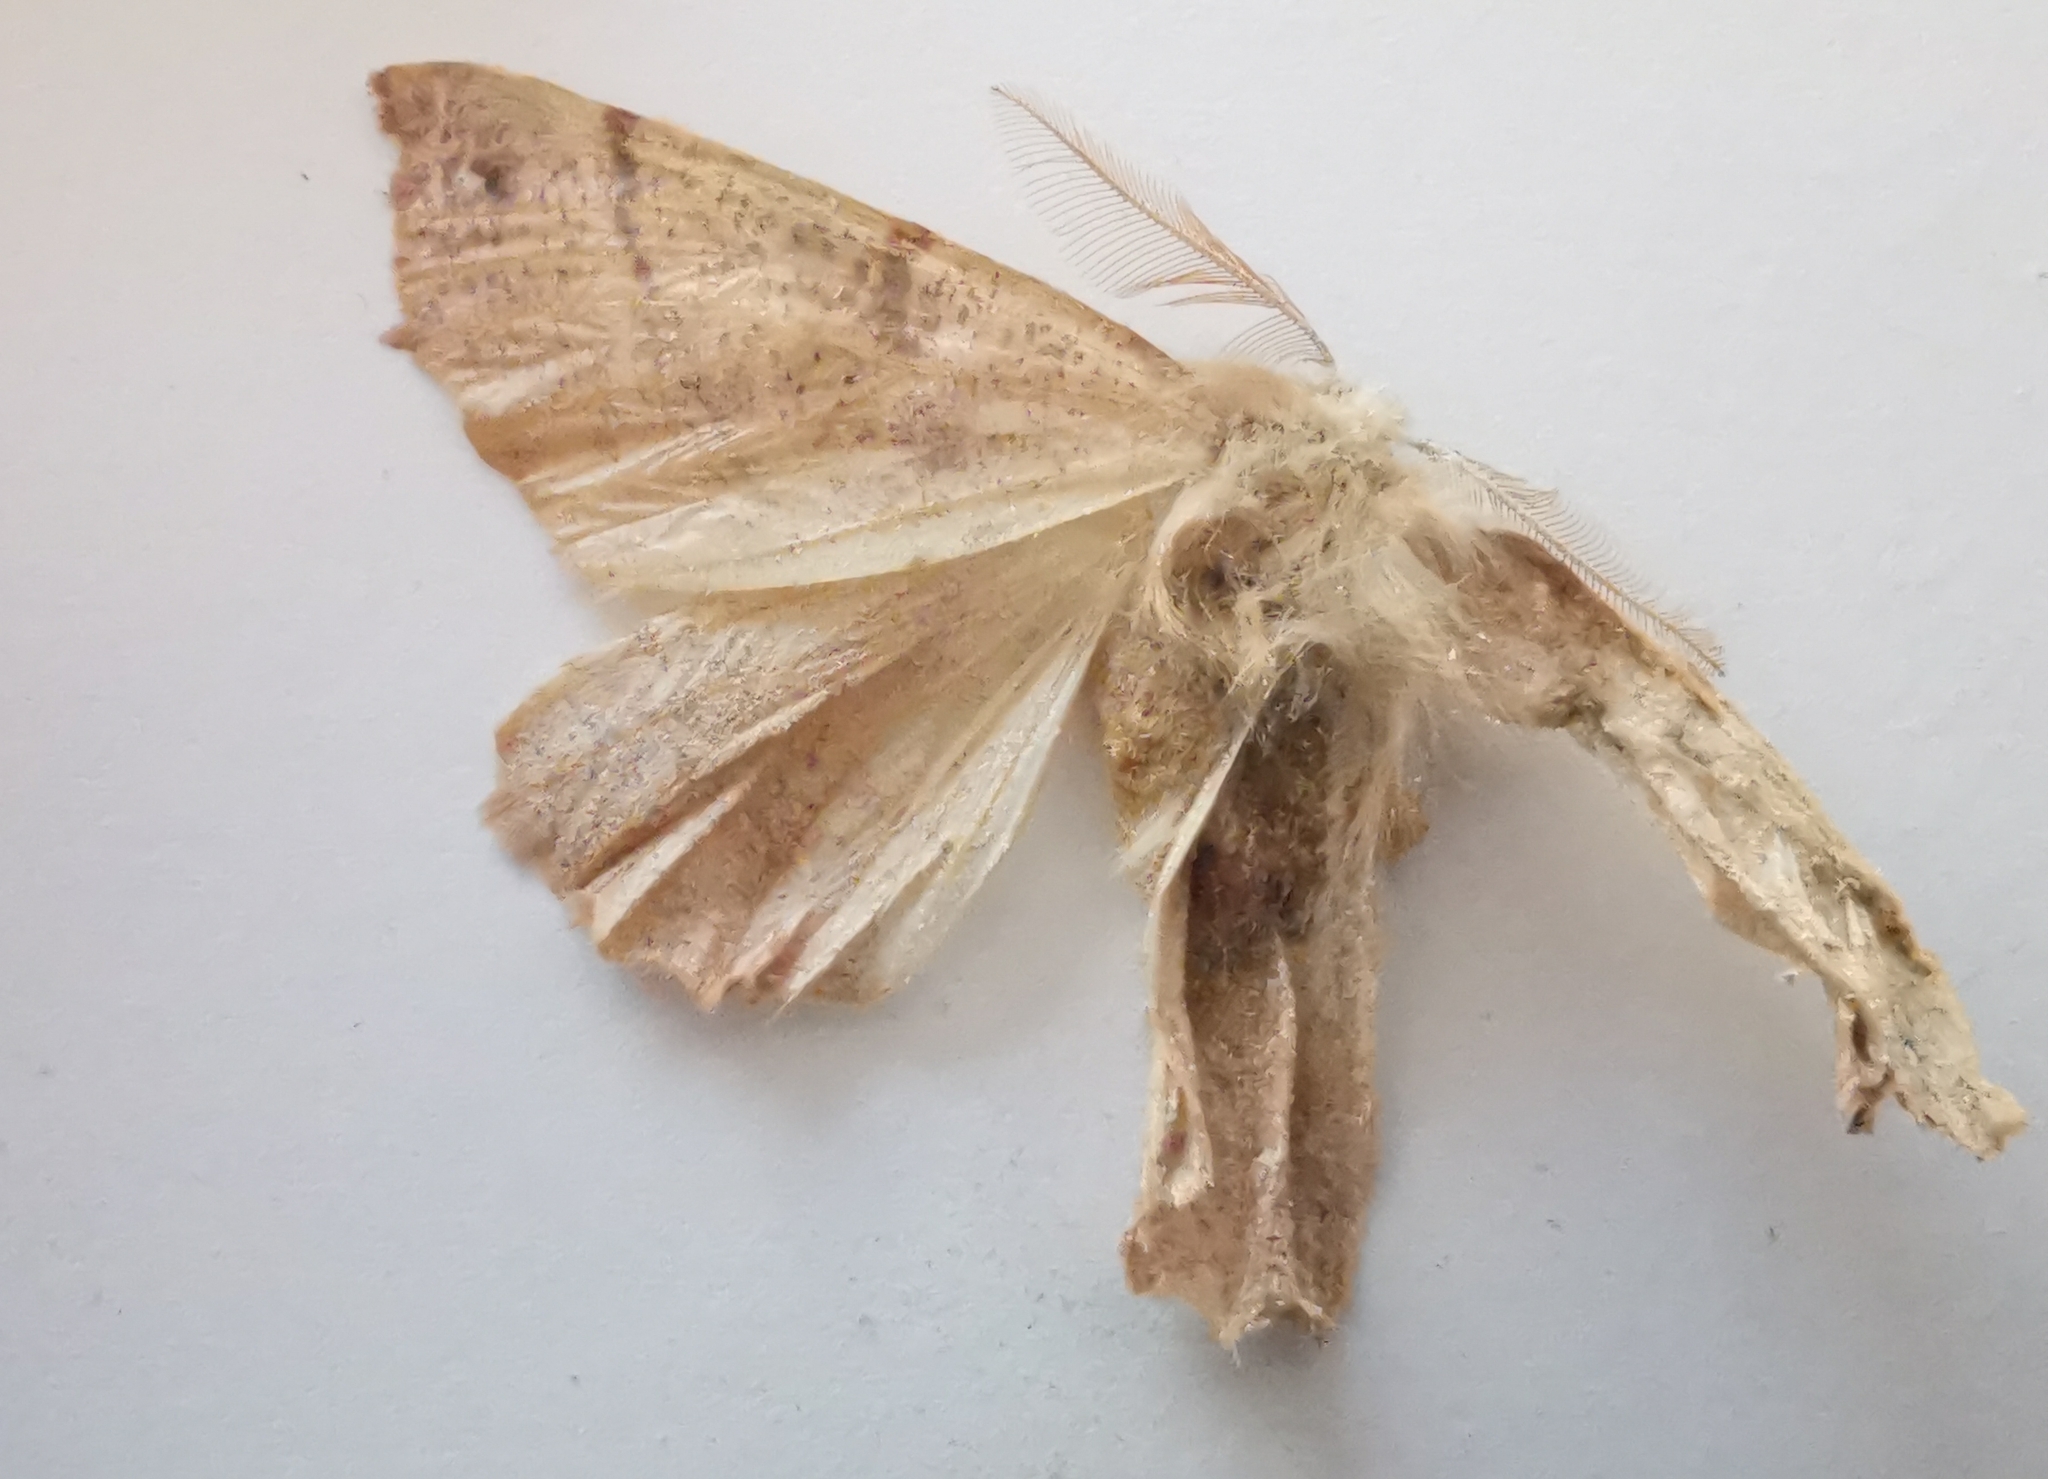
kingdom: Animalia
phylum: Arthropoda
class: Insecta
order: Lepidoptera
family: Geometridae
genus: Colotois
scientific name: Colotois pennaria
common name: Feathered thorn
